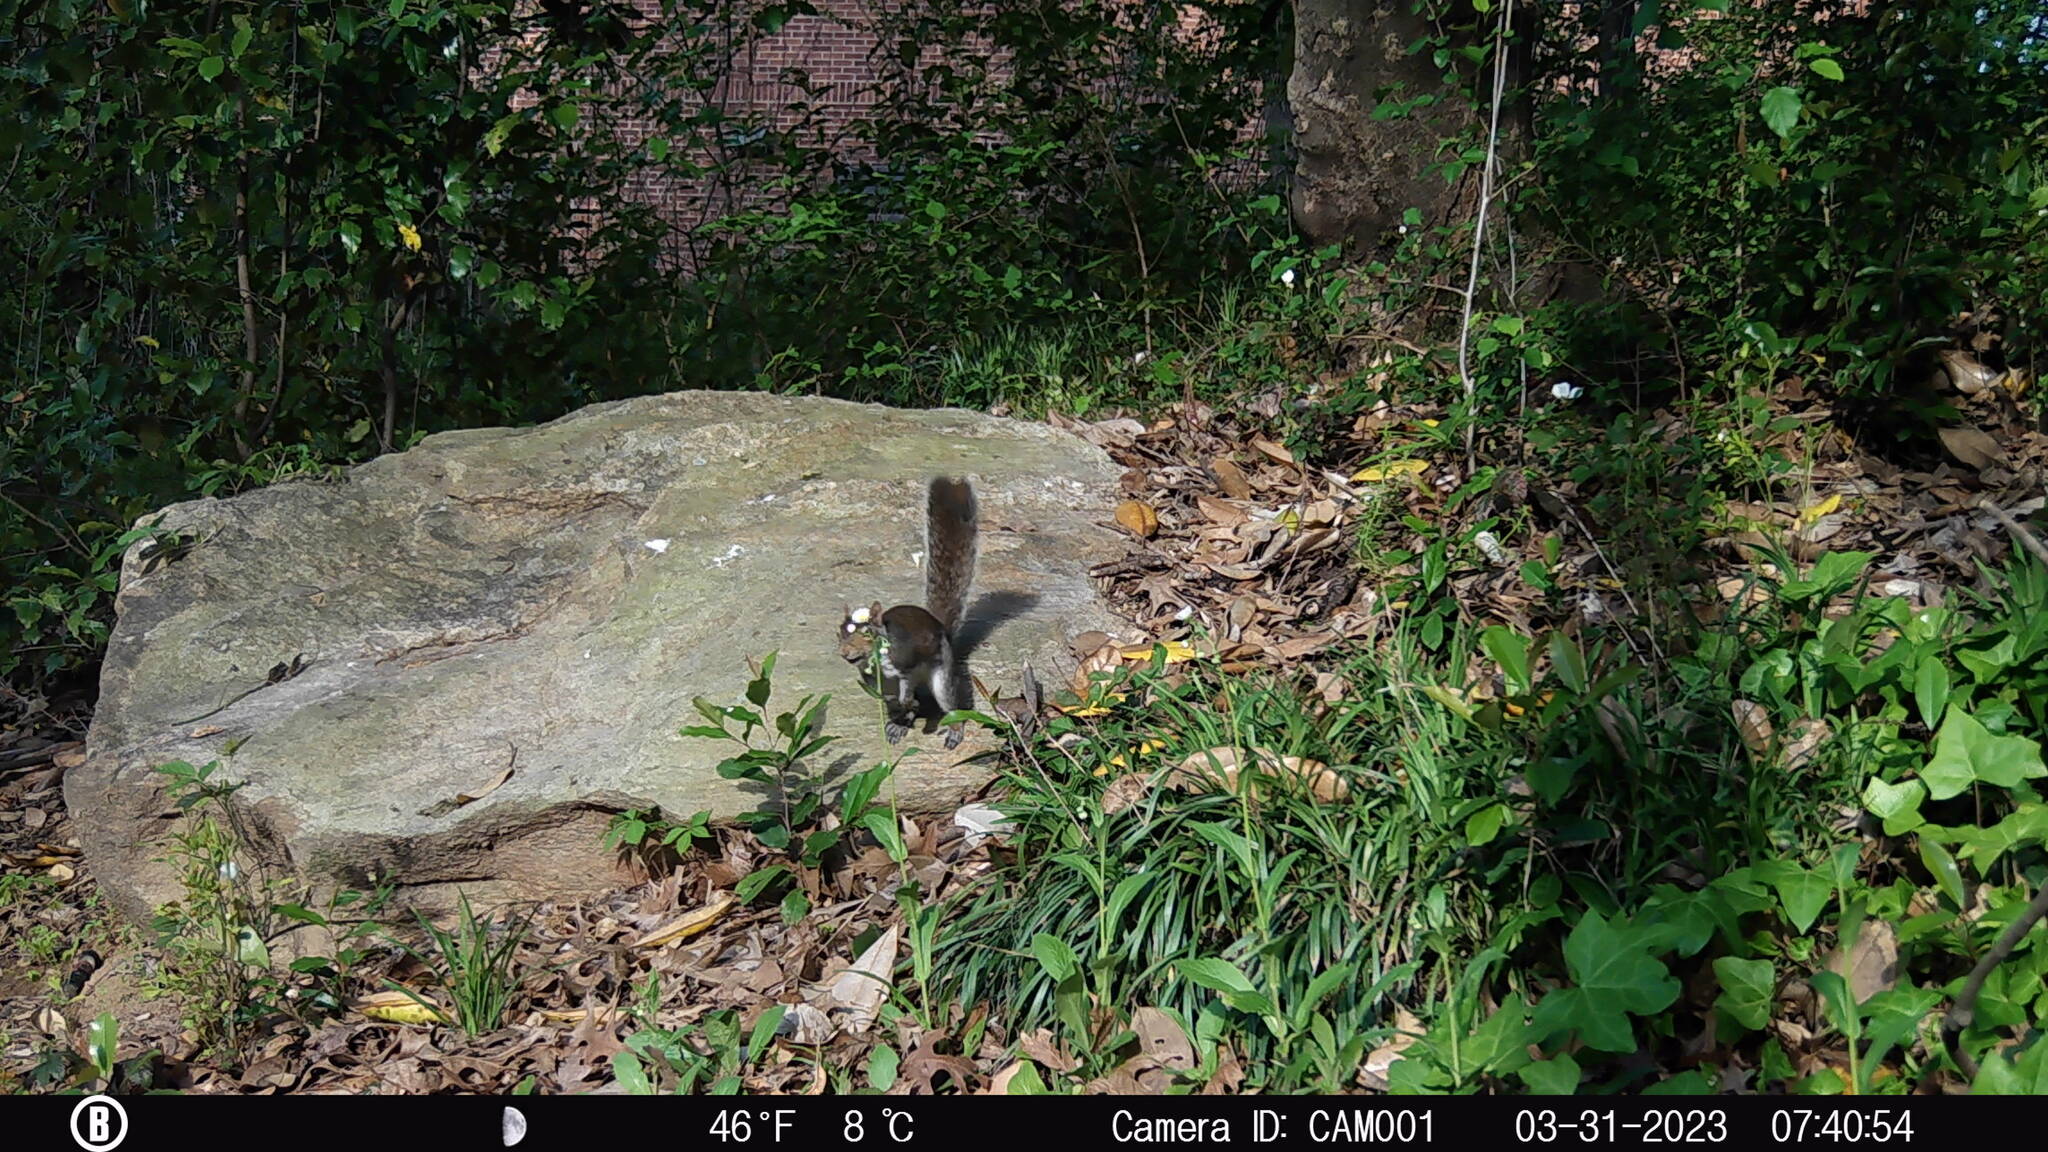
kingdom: Animalia
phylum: Chordata
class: Mammalia
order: Rodentia
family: Sciuridae
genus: Sciurus
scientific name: Sciurus carolinensis
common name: Eastern gray squirrel
